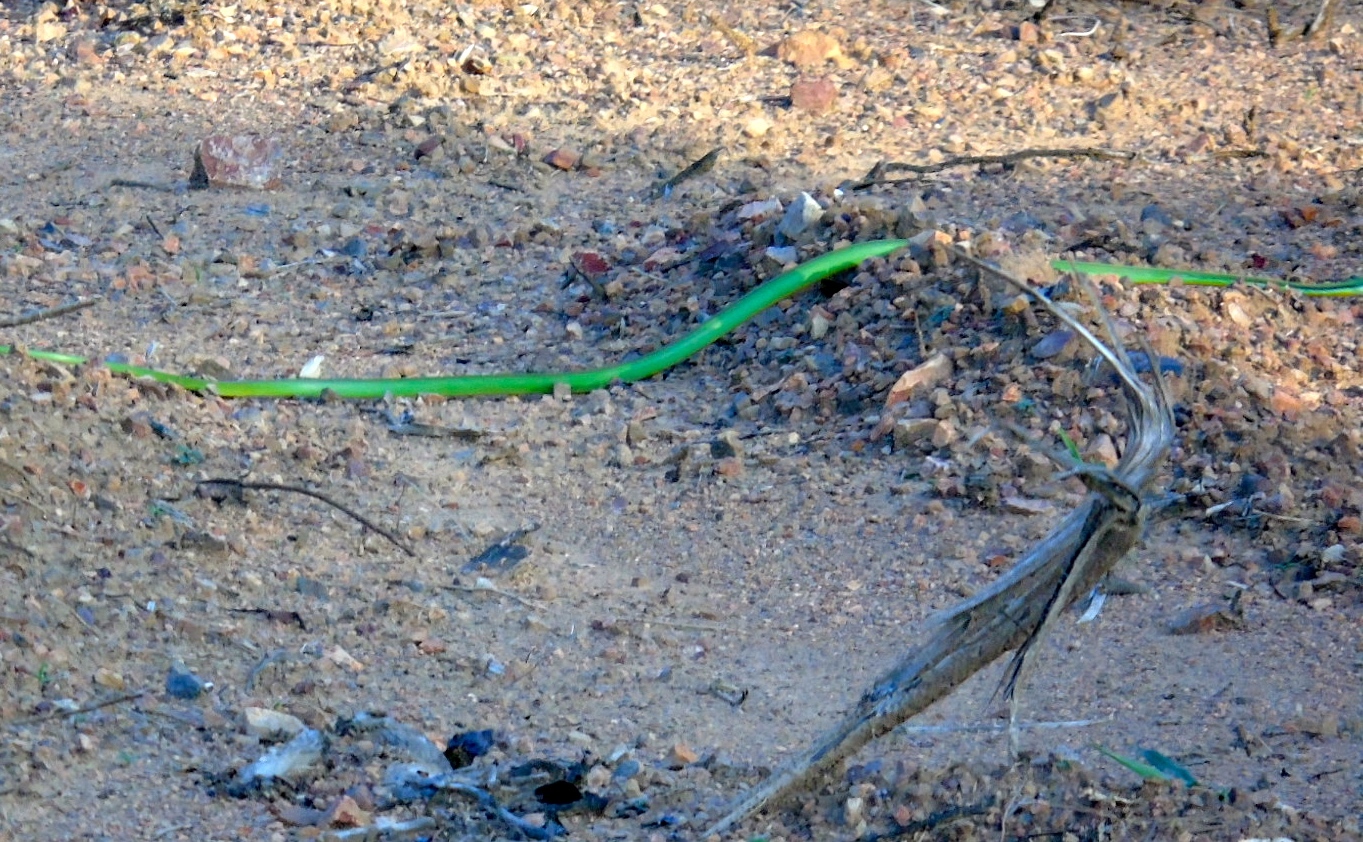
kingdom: Animalia
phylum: Chordata
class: Squamata
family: Colubridae
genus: Leptophis
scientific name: Leptophis diplotropis
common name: Pacific coast parrot snake
